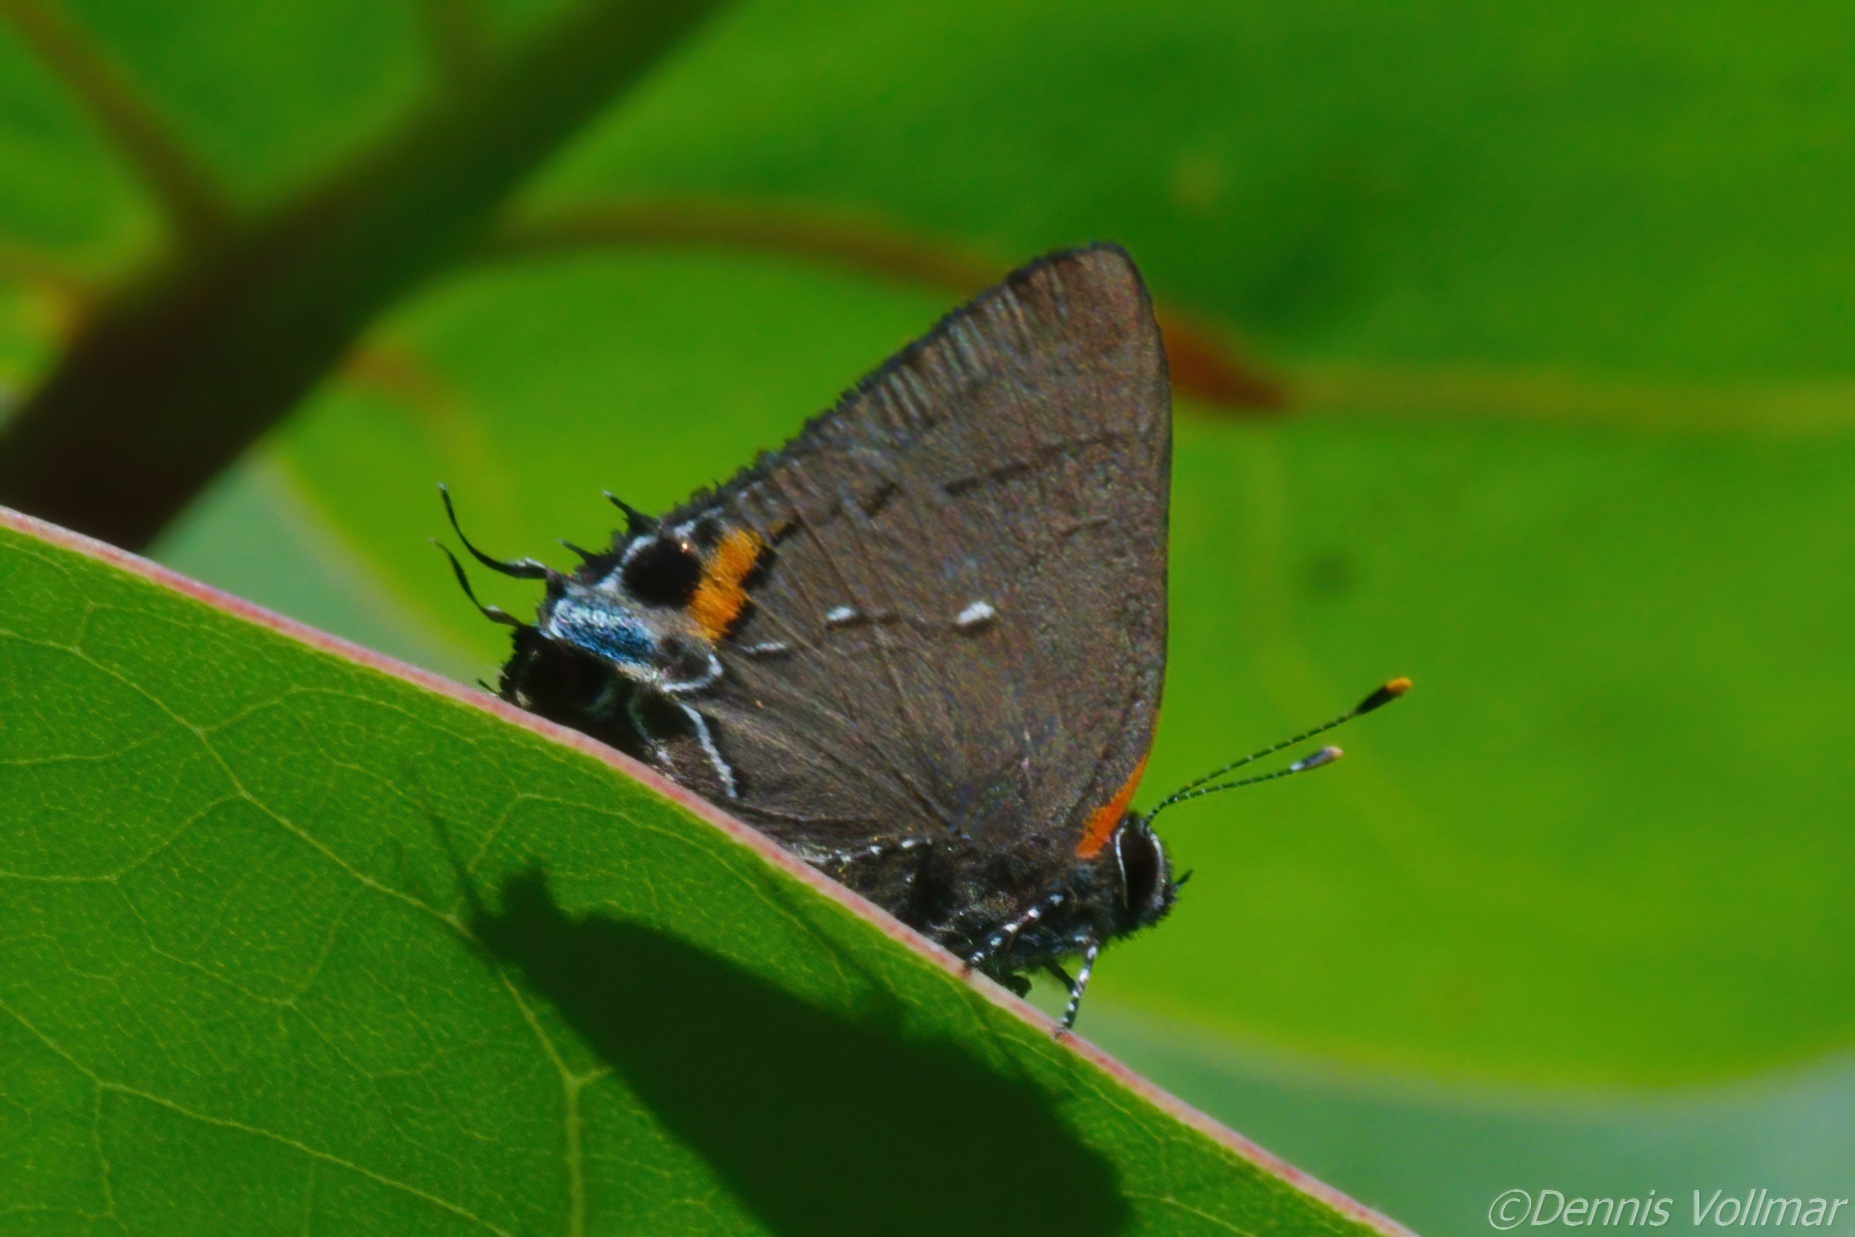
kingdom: Animalia
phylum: Arthropoda
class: Insecta
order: Lepidoptera
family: Lycaenidae
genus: Thecla
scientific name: Thecla angelia
